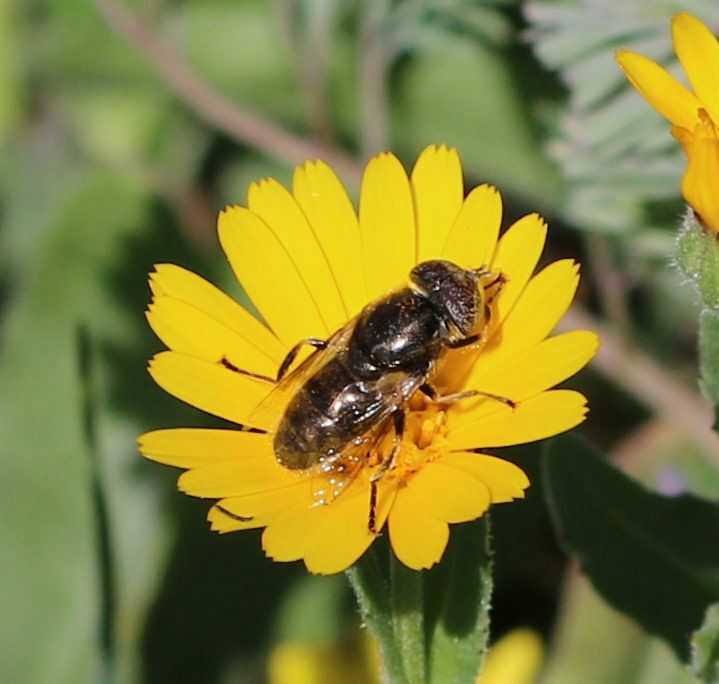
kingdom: Animalia
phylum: Arthropoda
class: Insecta
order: Diptera
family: Syrphidae
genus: Eristalinus
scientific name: Eristalinus aeneus
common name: Syrphid fly
